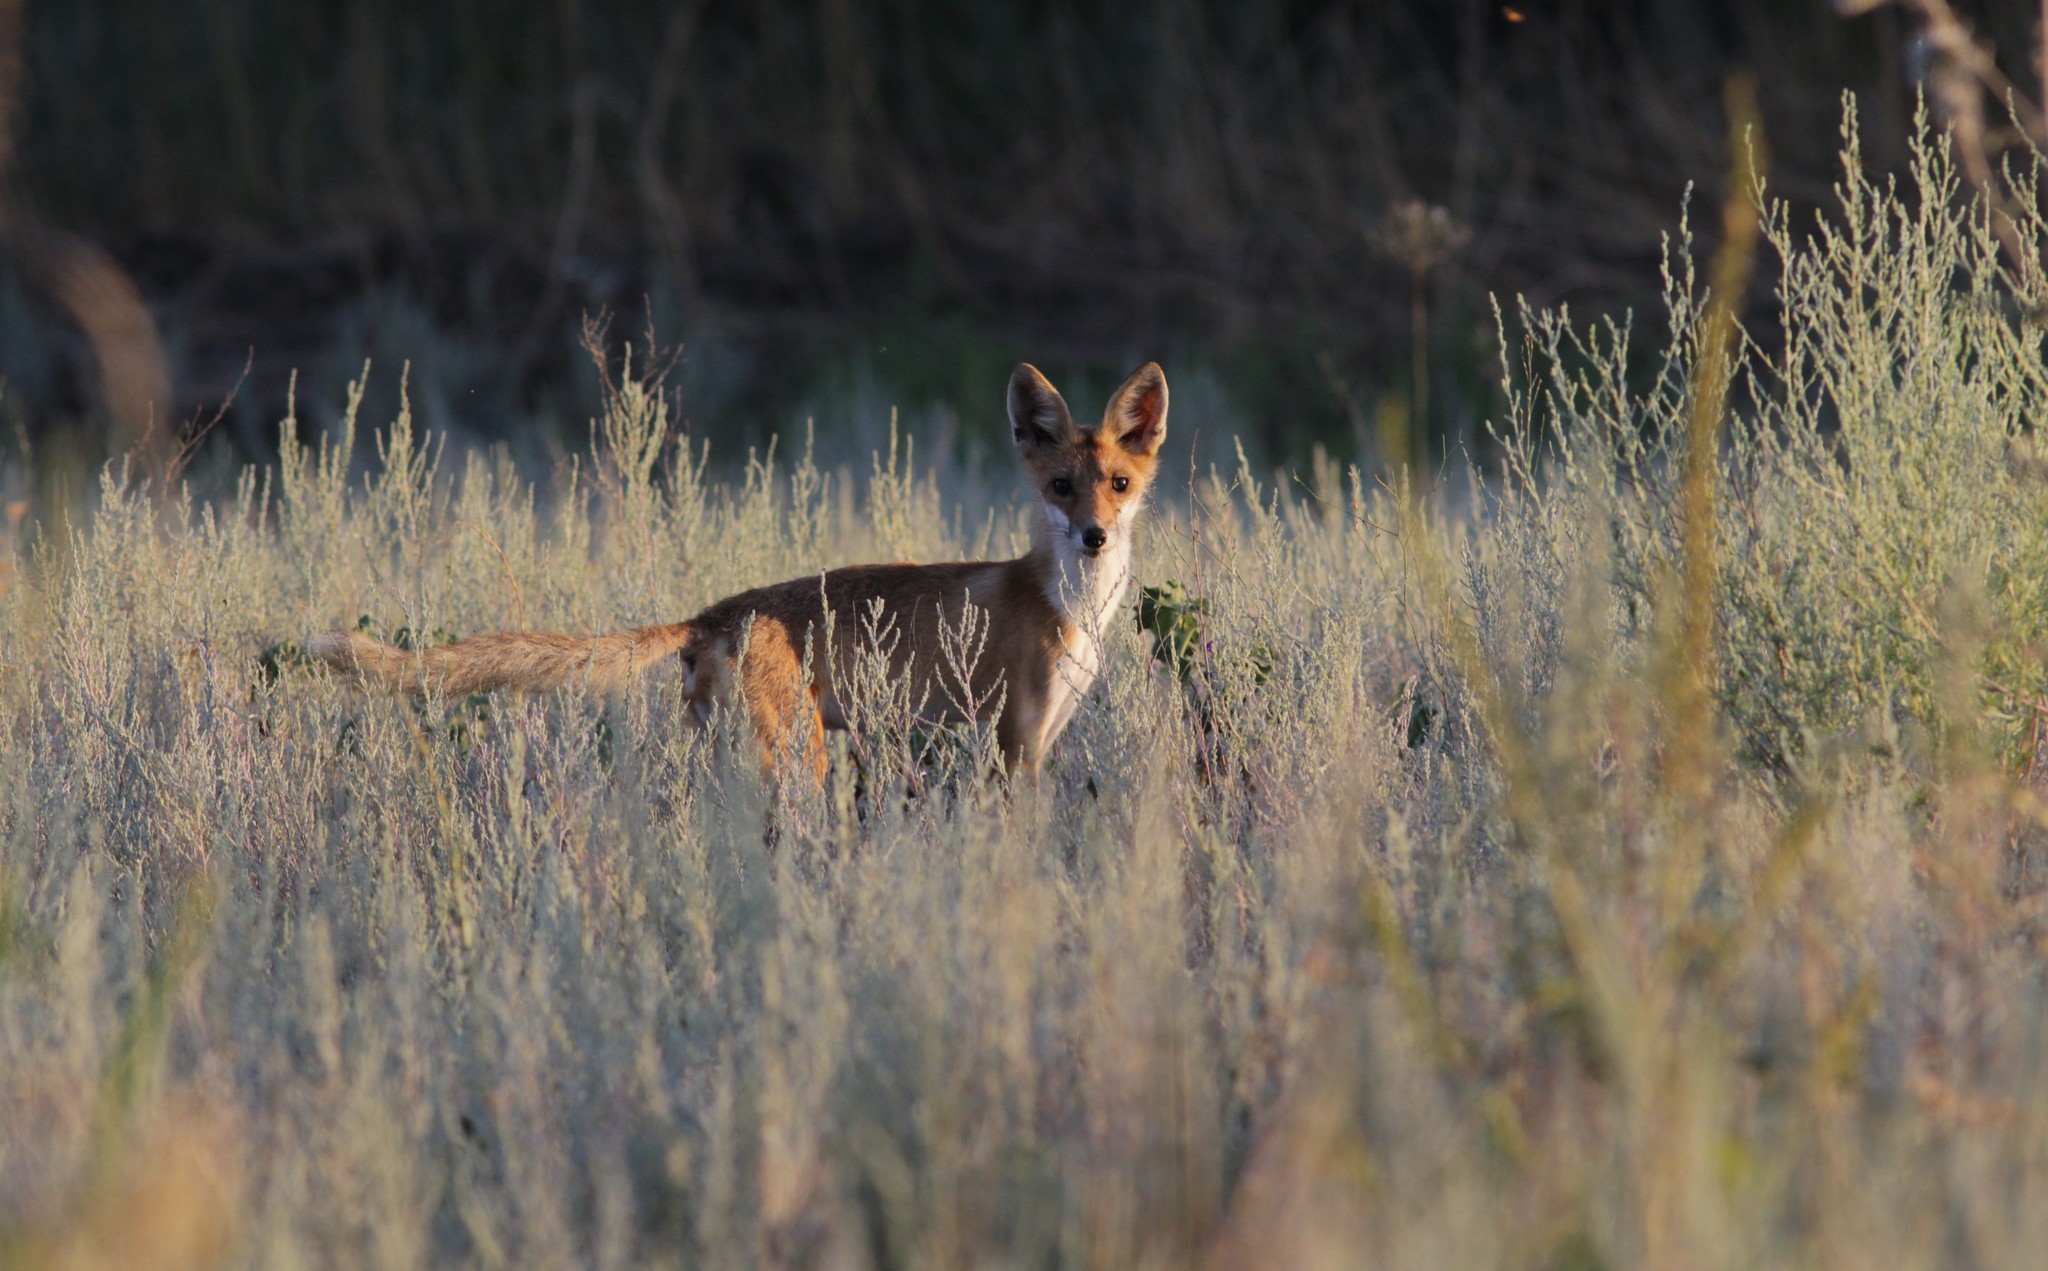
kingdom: Animalia
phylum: Chordata
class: Mammalia
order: Carnivora
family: Canidae
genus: Vulpes
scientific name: Vulpes vulpes
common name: Red fox
